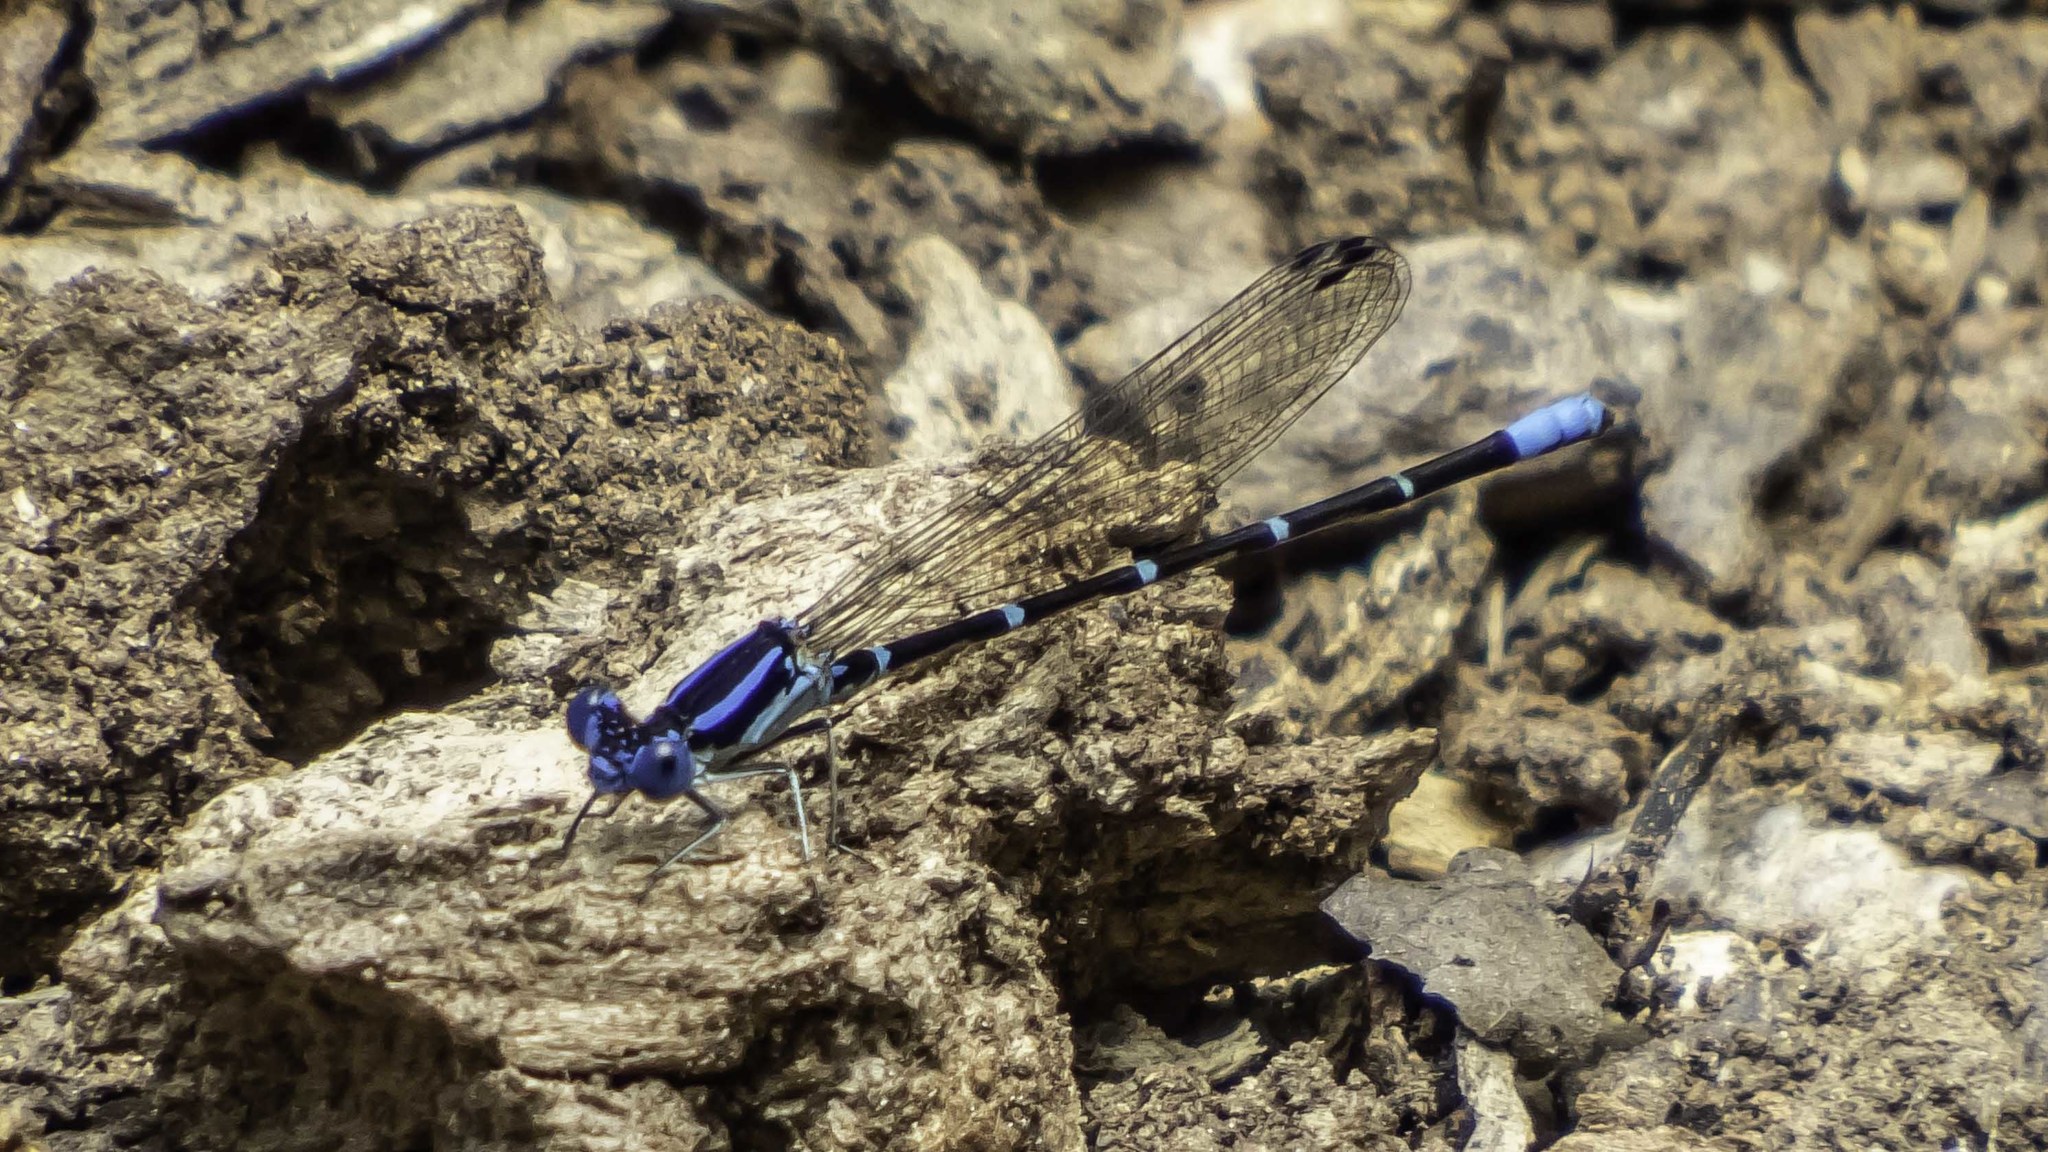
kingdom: Animalia
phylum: Arthropoda
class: Insecta
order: Odonata
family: Coenagrionidae
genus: Argia
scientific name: Argia sedula
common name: Blue-ringed dancer
